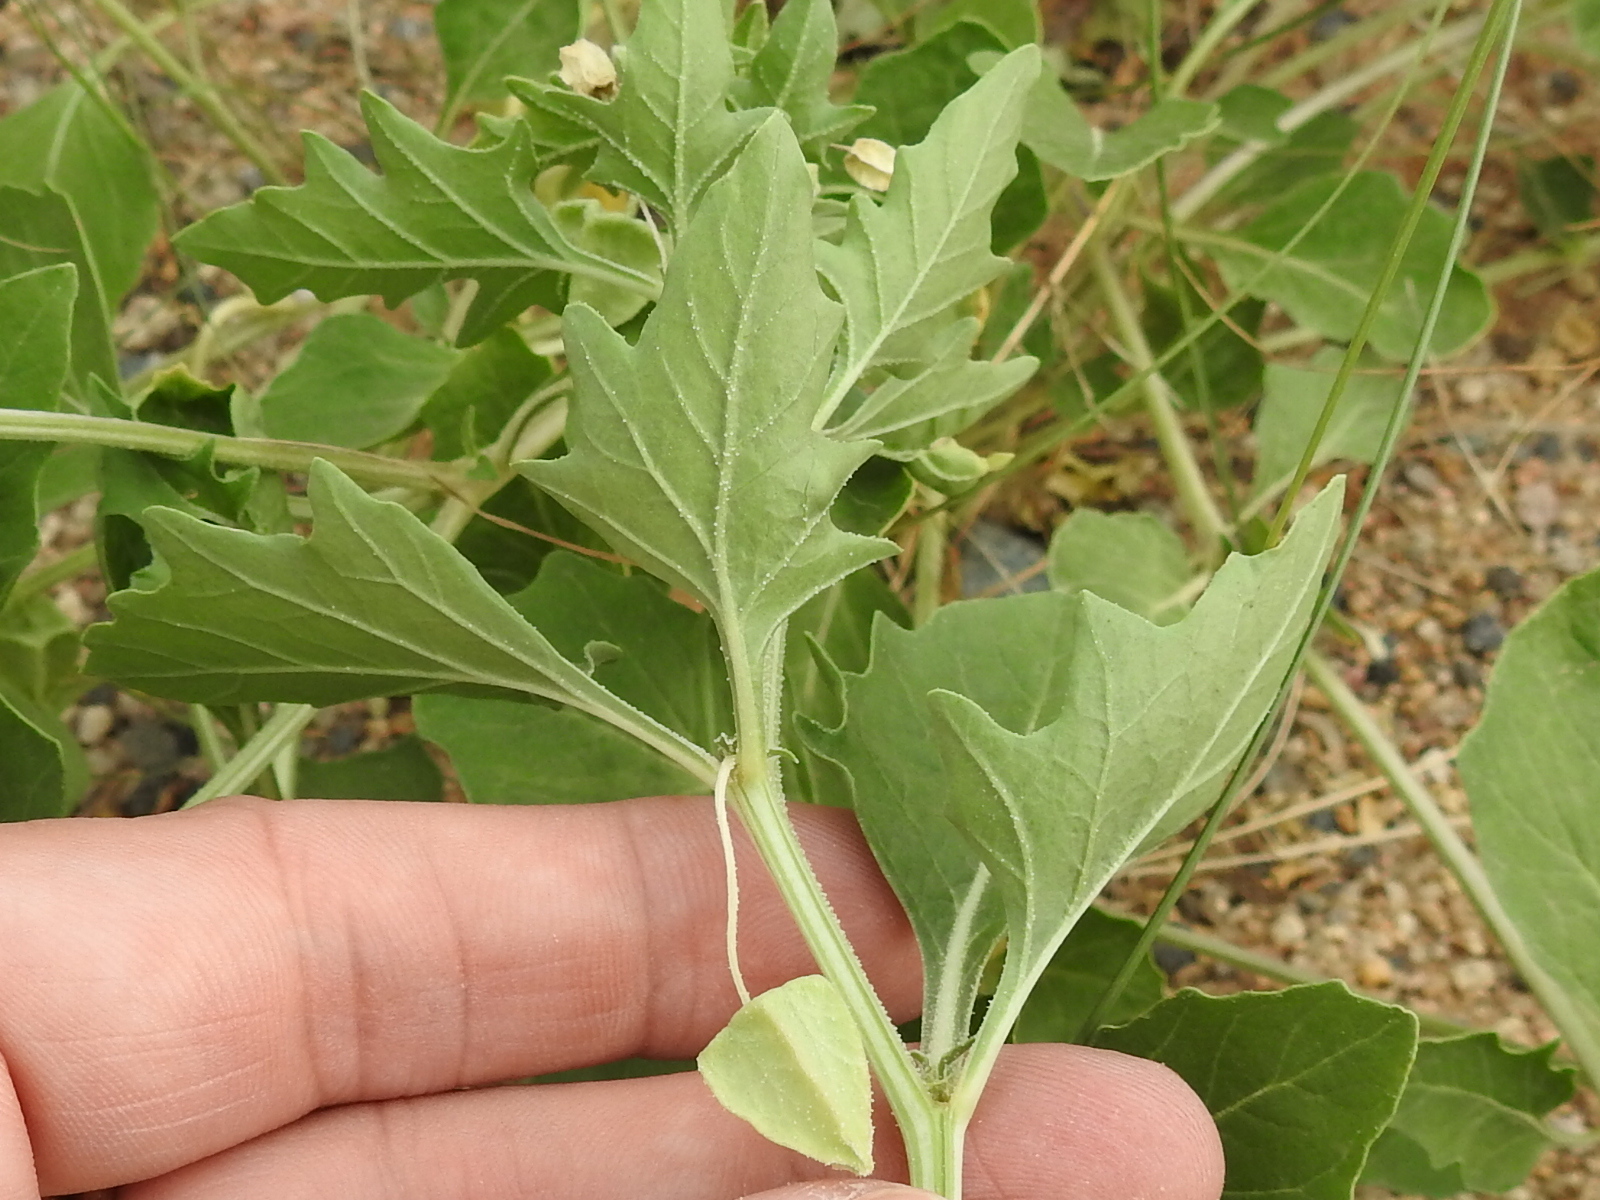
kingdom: Plantae
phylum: Tracheophyta
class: Magnoliopsida
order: Solanales
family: Solanaceae
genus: Quincula
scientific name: Quincula lobata
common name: Purple-ground-cherry
